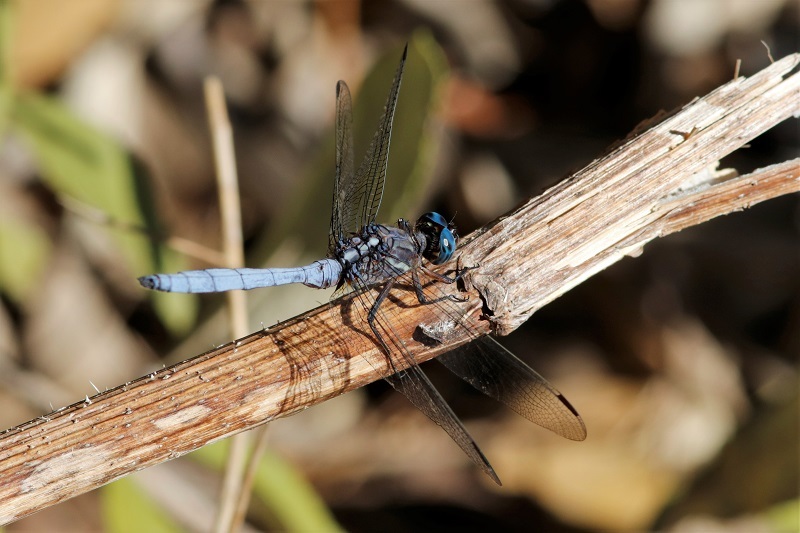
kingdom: Animalia
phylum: Arthropoda
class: Insecta
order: Odonata
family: Libellulidae
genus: Orthetrum
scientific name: Orthetrum julia
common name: Julia skimmer
